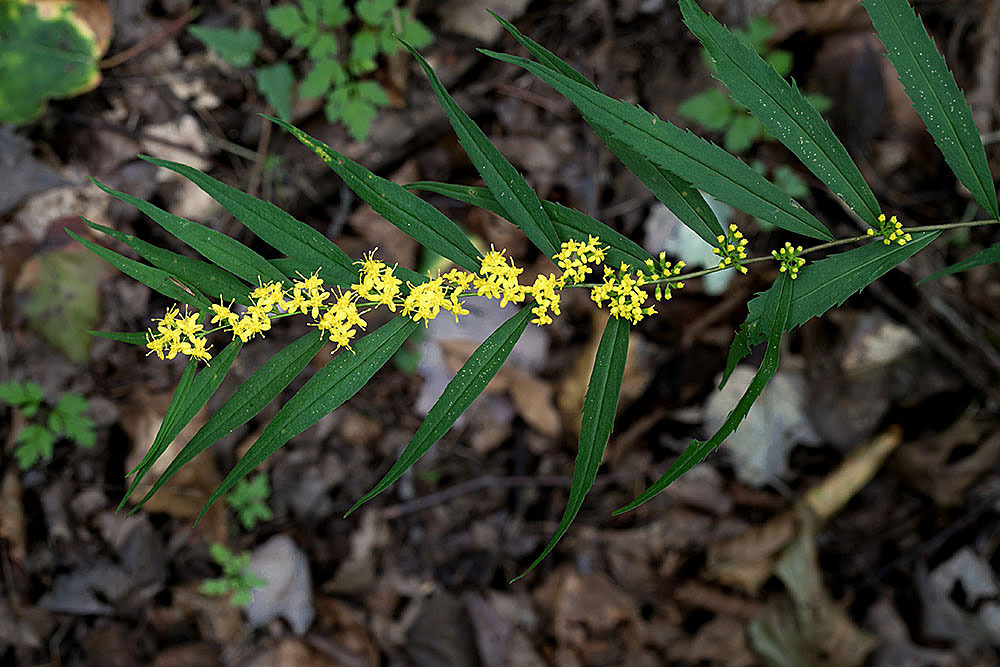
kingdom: Plantae
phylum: Tracheophyta
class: Magnoliopsida
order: Asterales
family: Asteraceae
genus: Solidago
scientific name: Solidago caesia
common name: Woodland goldenrod
